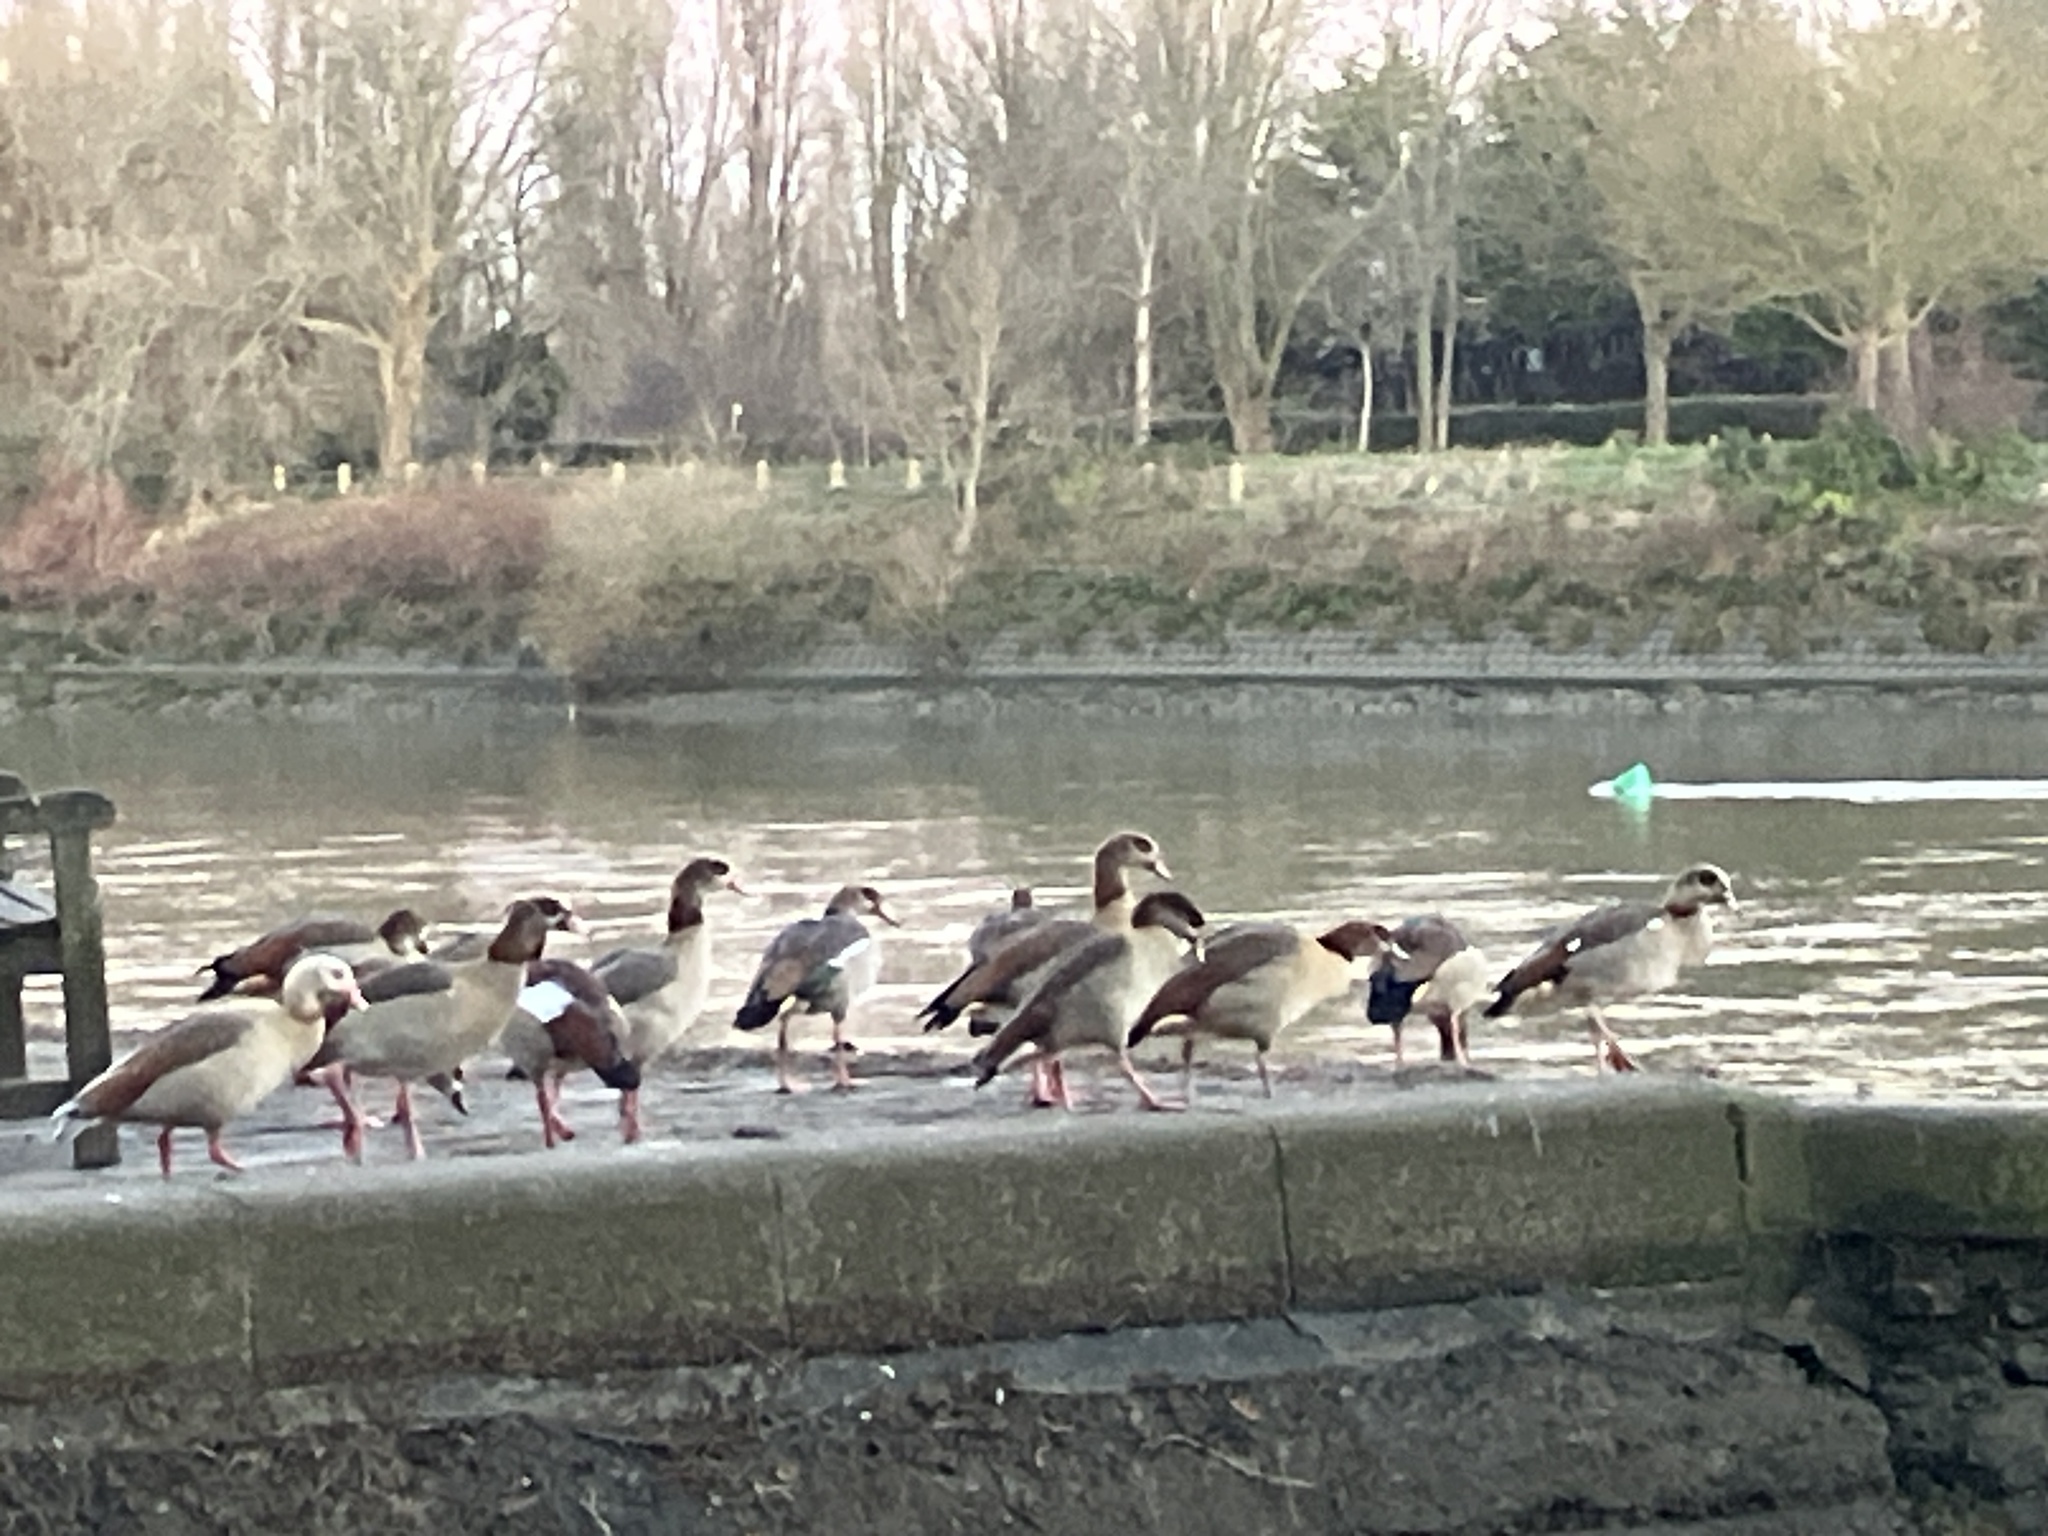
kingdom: Animalia
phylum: Chordata
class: Aves
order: Anseriformes
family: Anatidae
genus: Alopochen
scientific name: Alopochen aegyptiaca
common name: Egyptian goose
